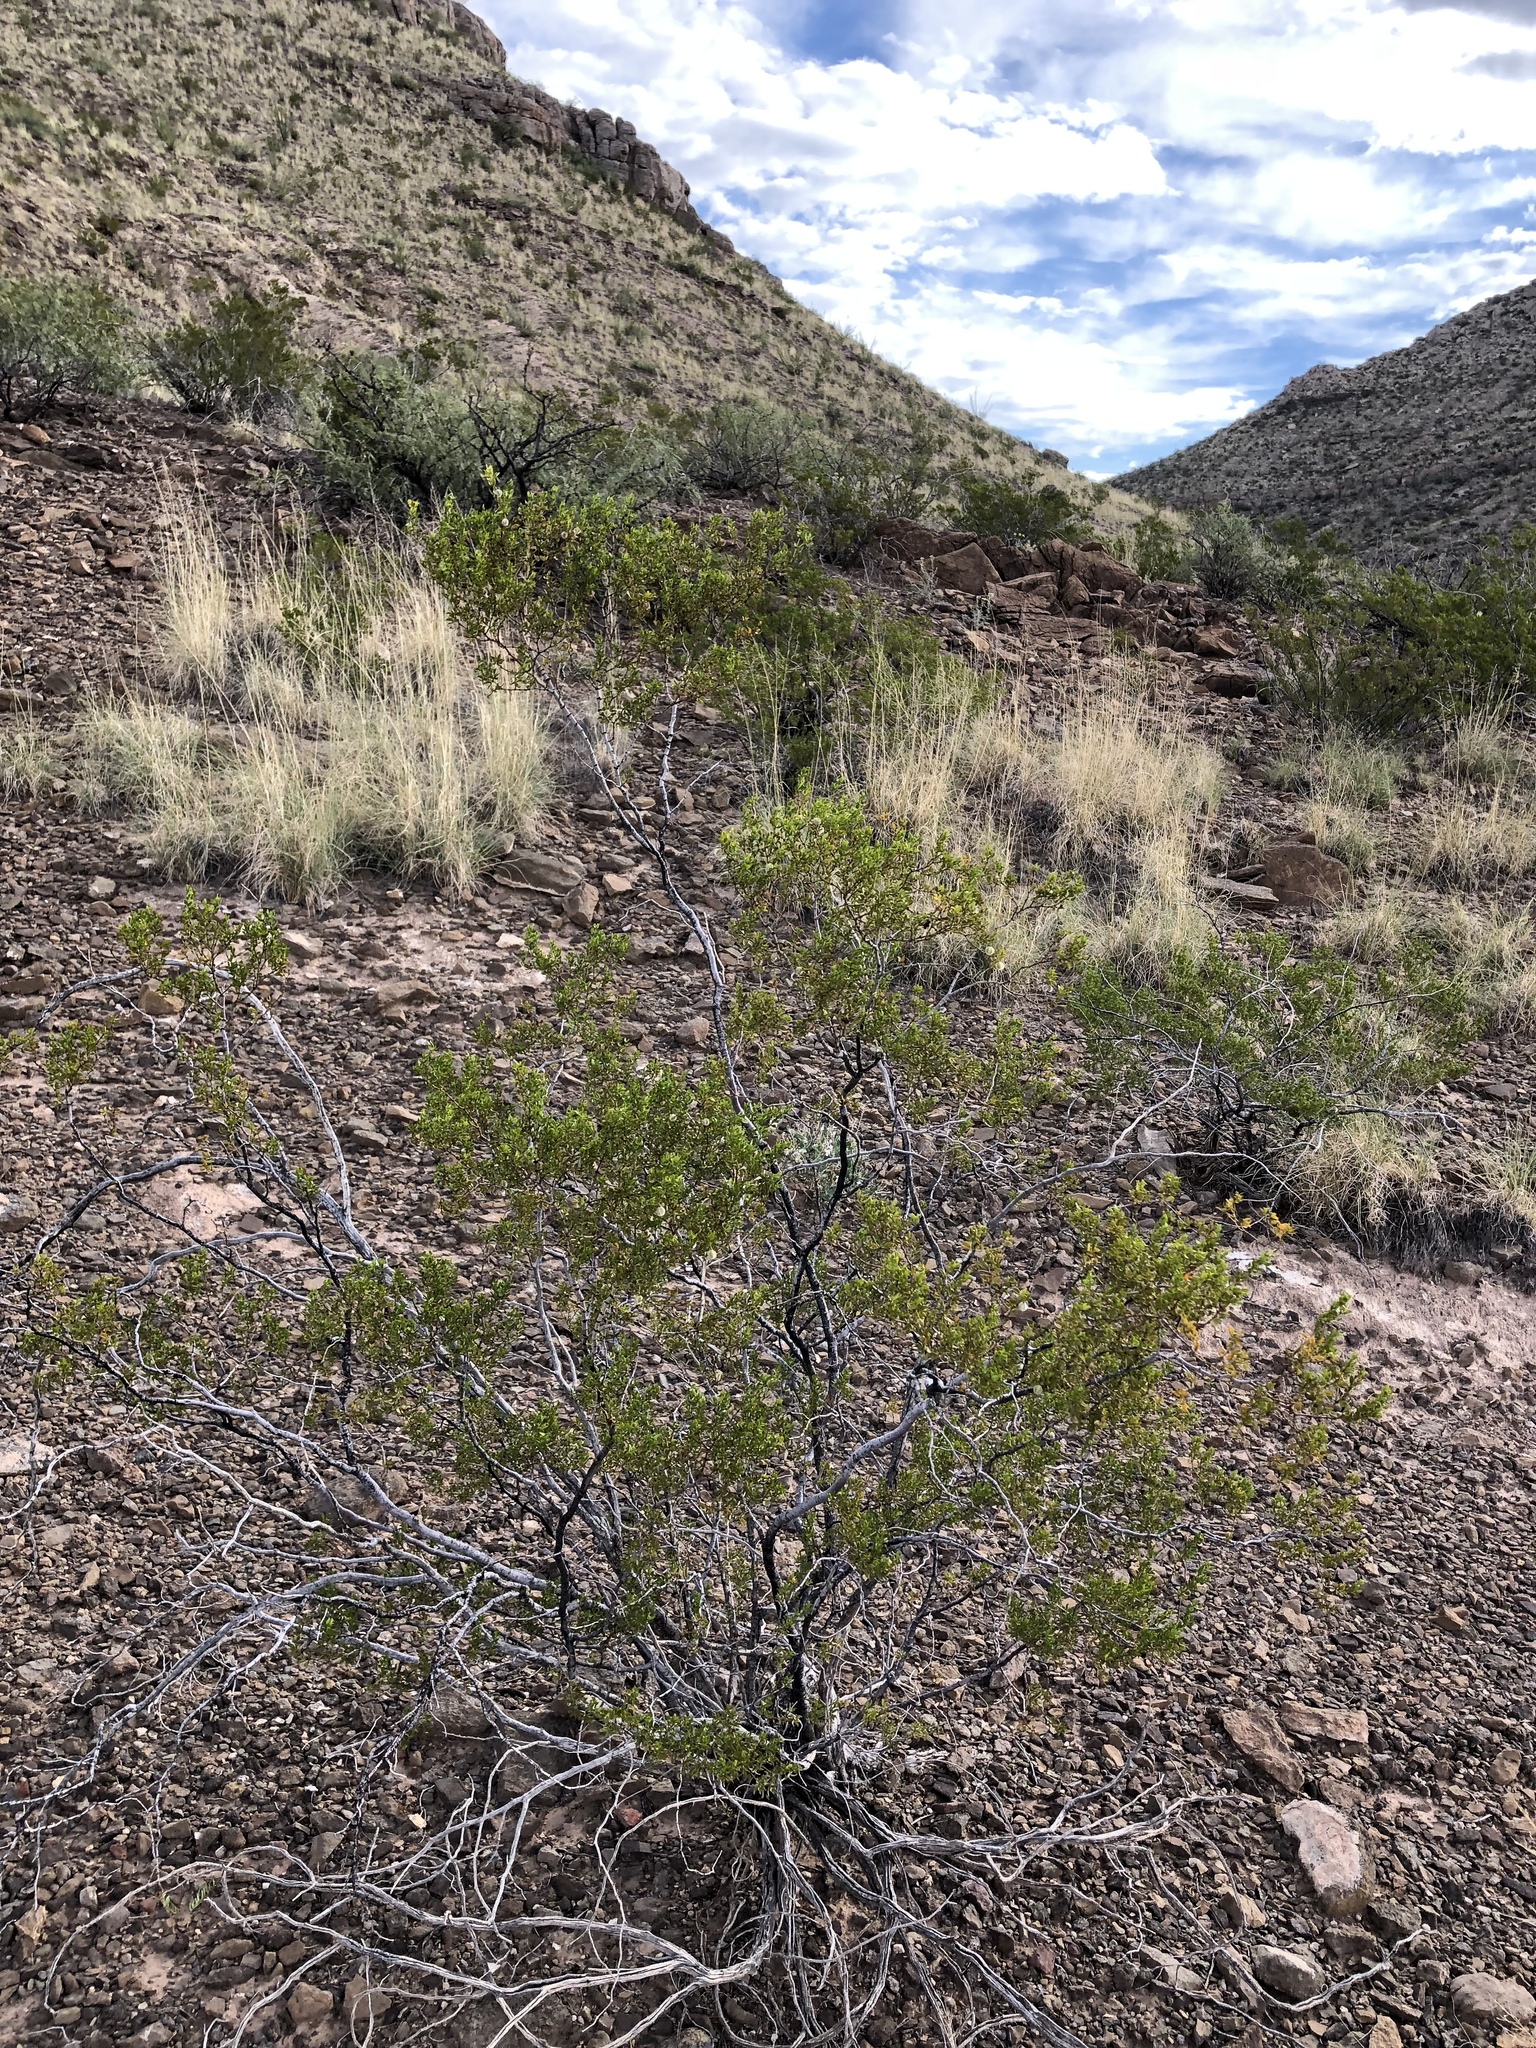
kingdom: Plantae
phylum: Tracheophyta
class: Magnoliopsida
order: Zygophyllales
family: Zygophyllaceae
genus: Larrea
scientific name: Larrea tridentata
